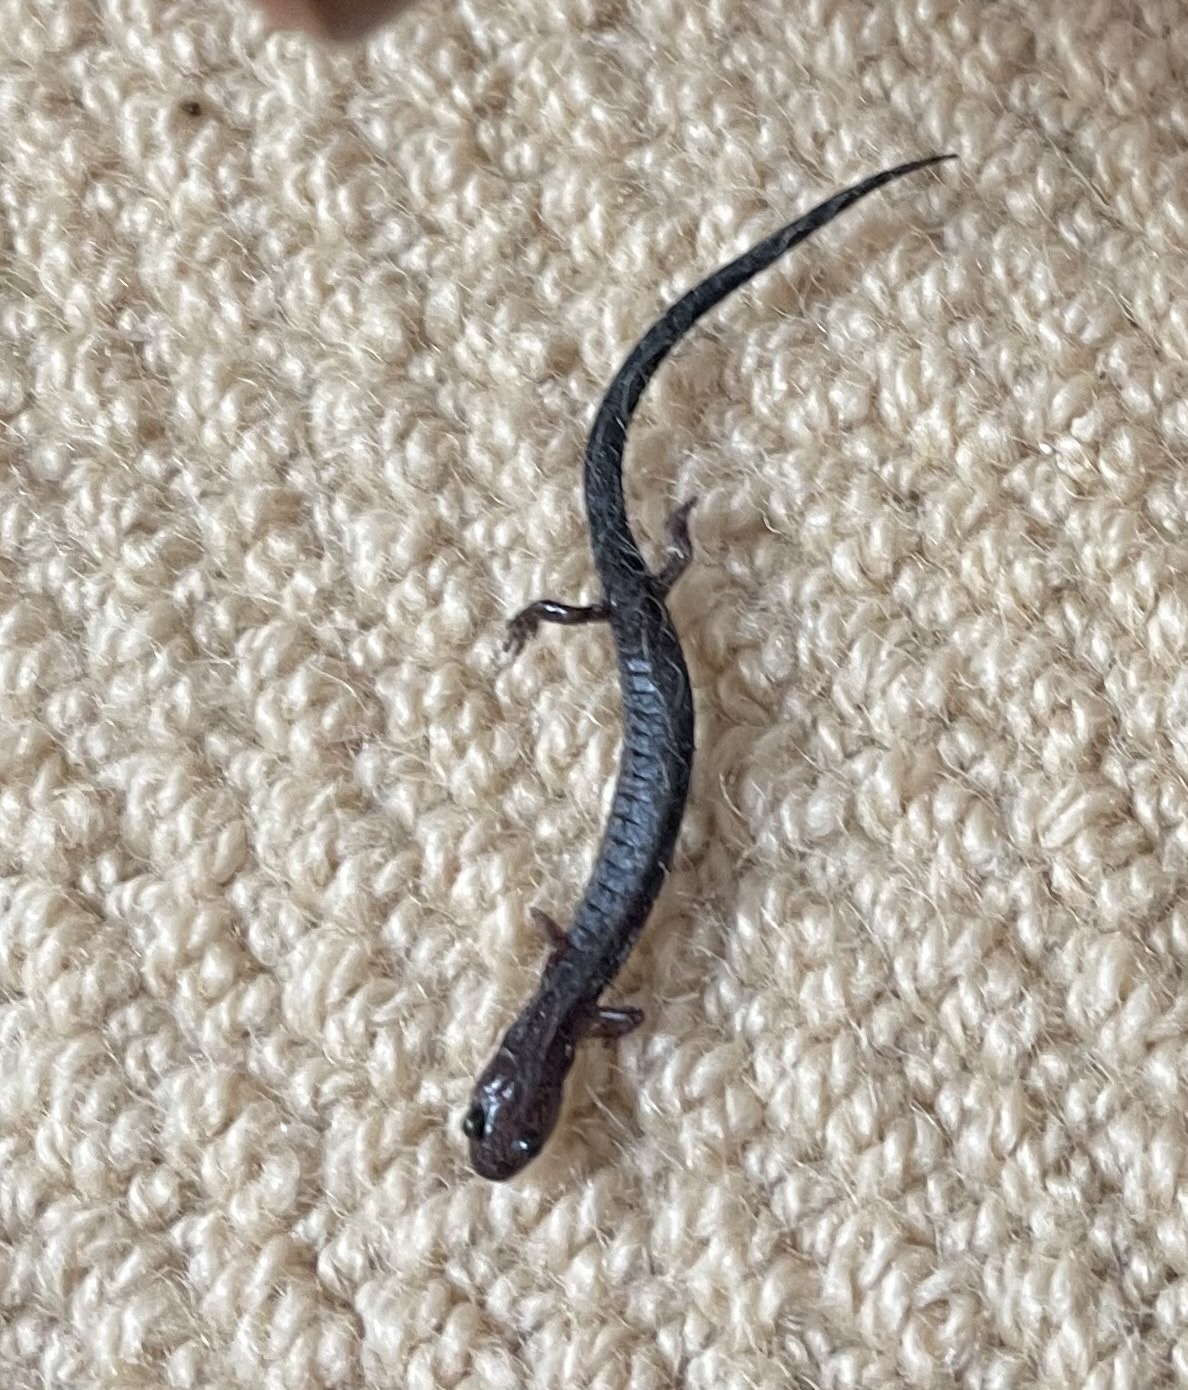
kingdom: Animalia
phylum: Chordata
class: Amphibia
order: Caudata
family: Plethodontidae
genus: Plethodon
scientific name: Plethodon cinereus
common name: Redback salamander
